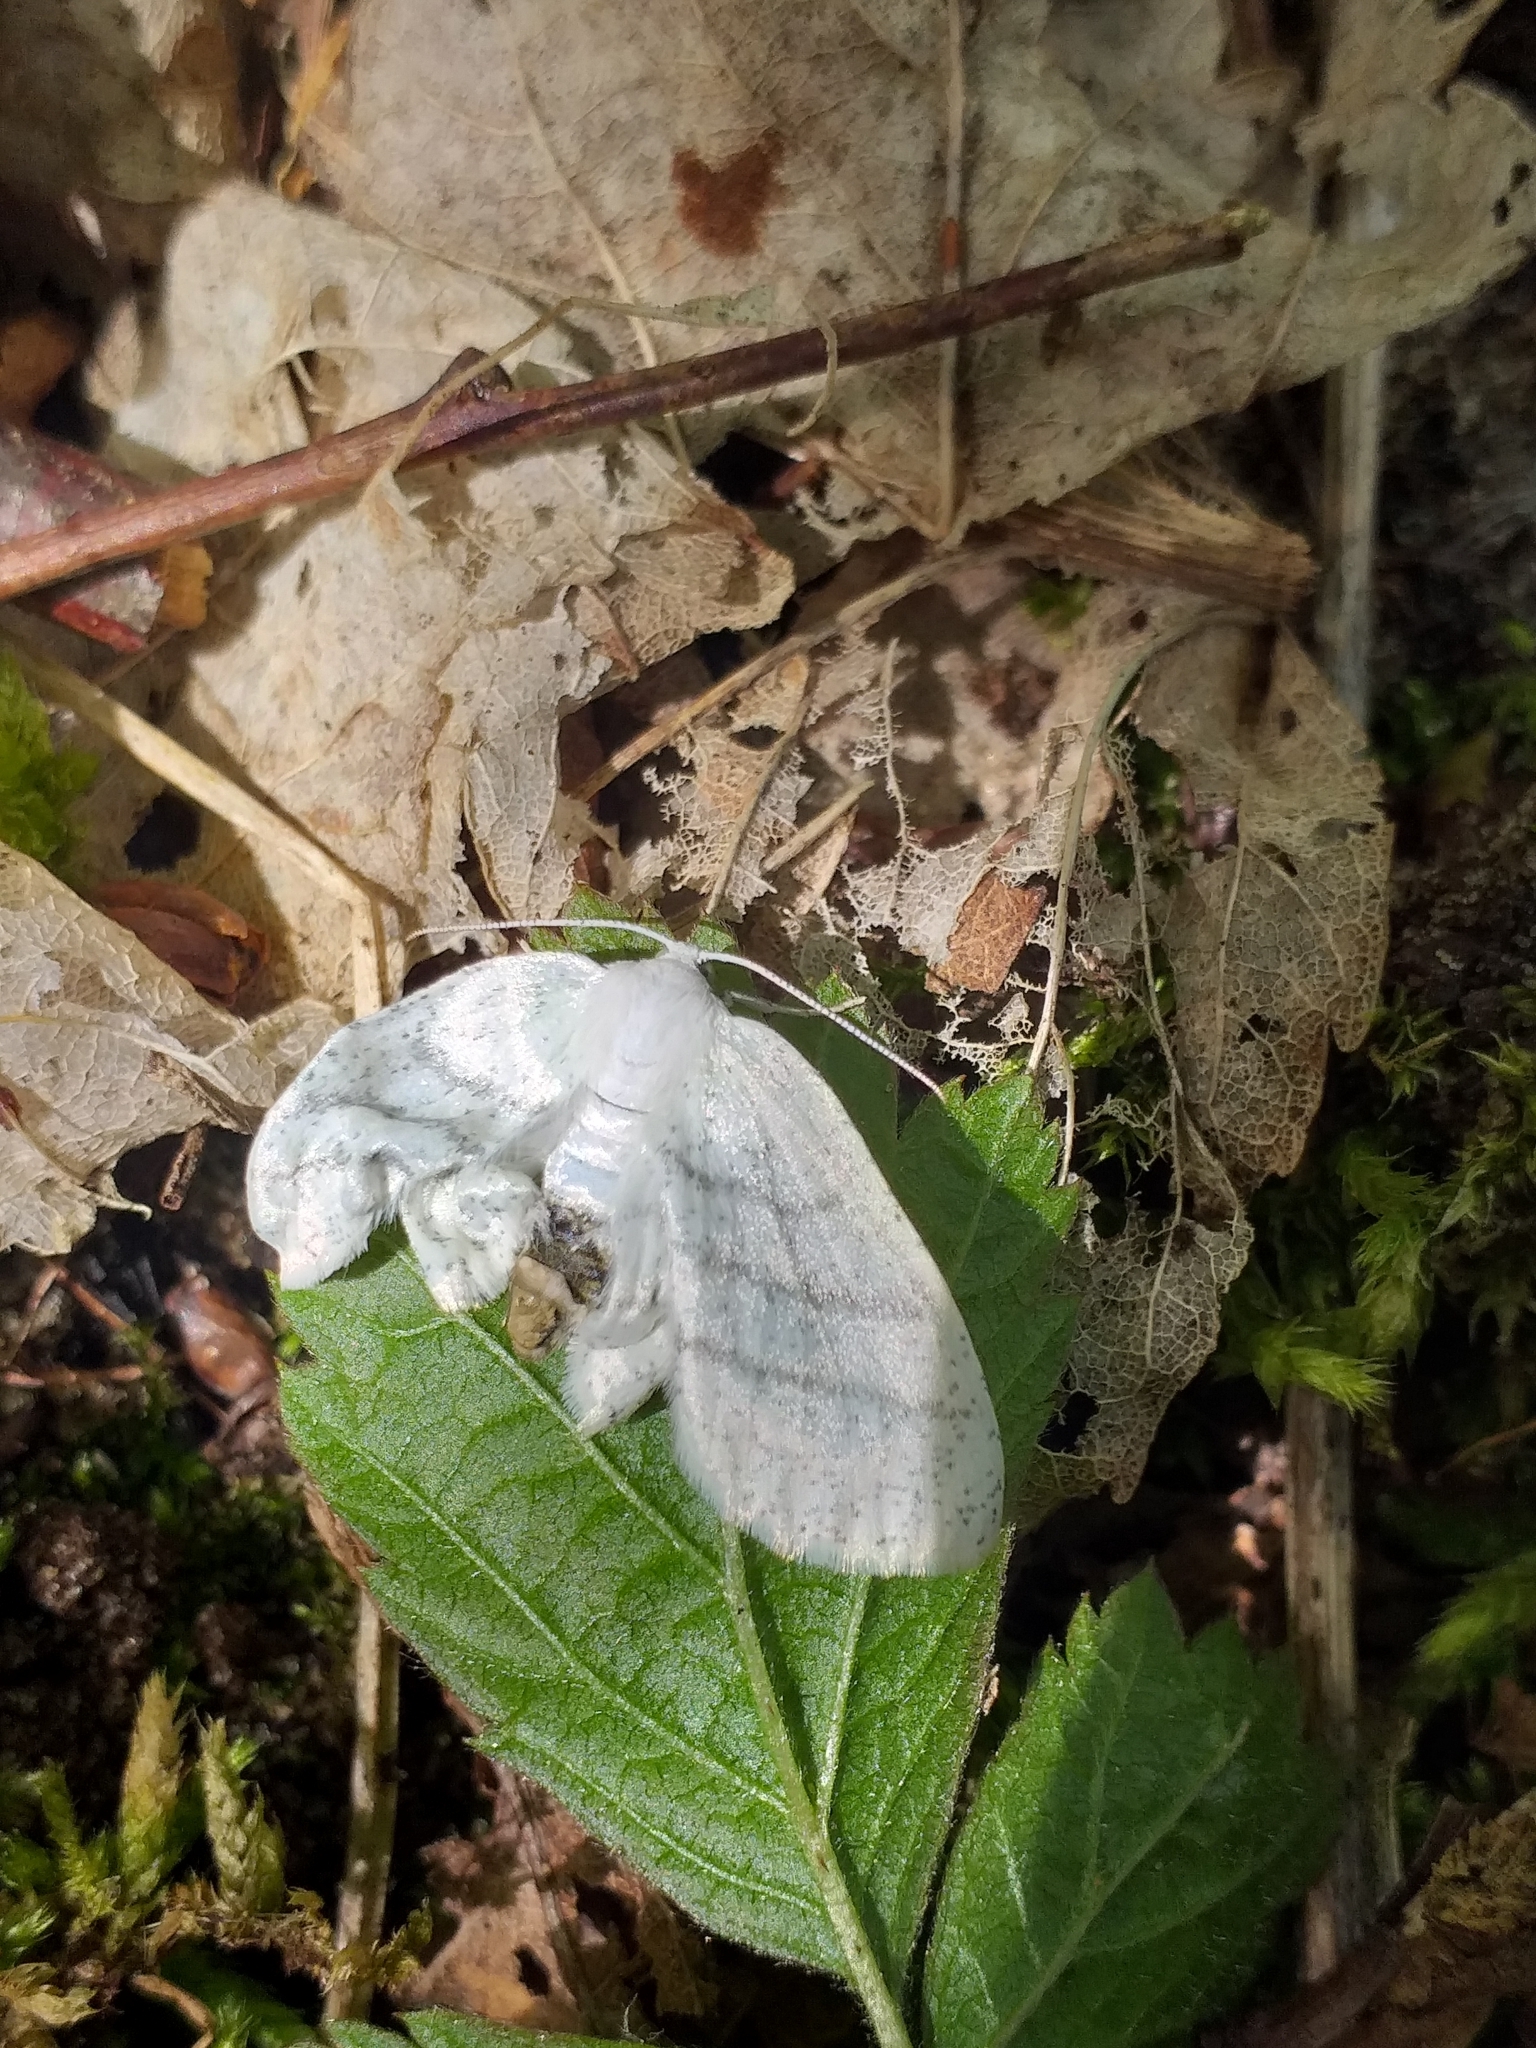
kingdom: Animalia
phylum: Arthropoda
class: Insecta
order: Lepidoptera
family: Geometridae
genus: Cabera
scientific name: Cabera pusaria
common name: Common white wave
